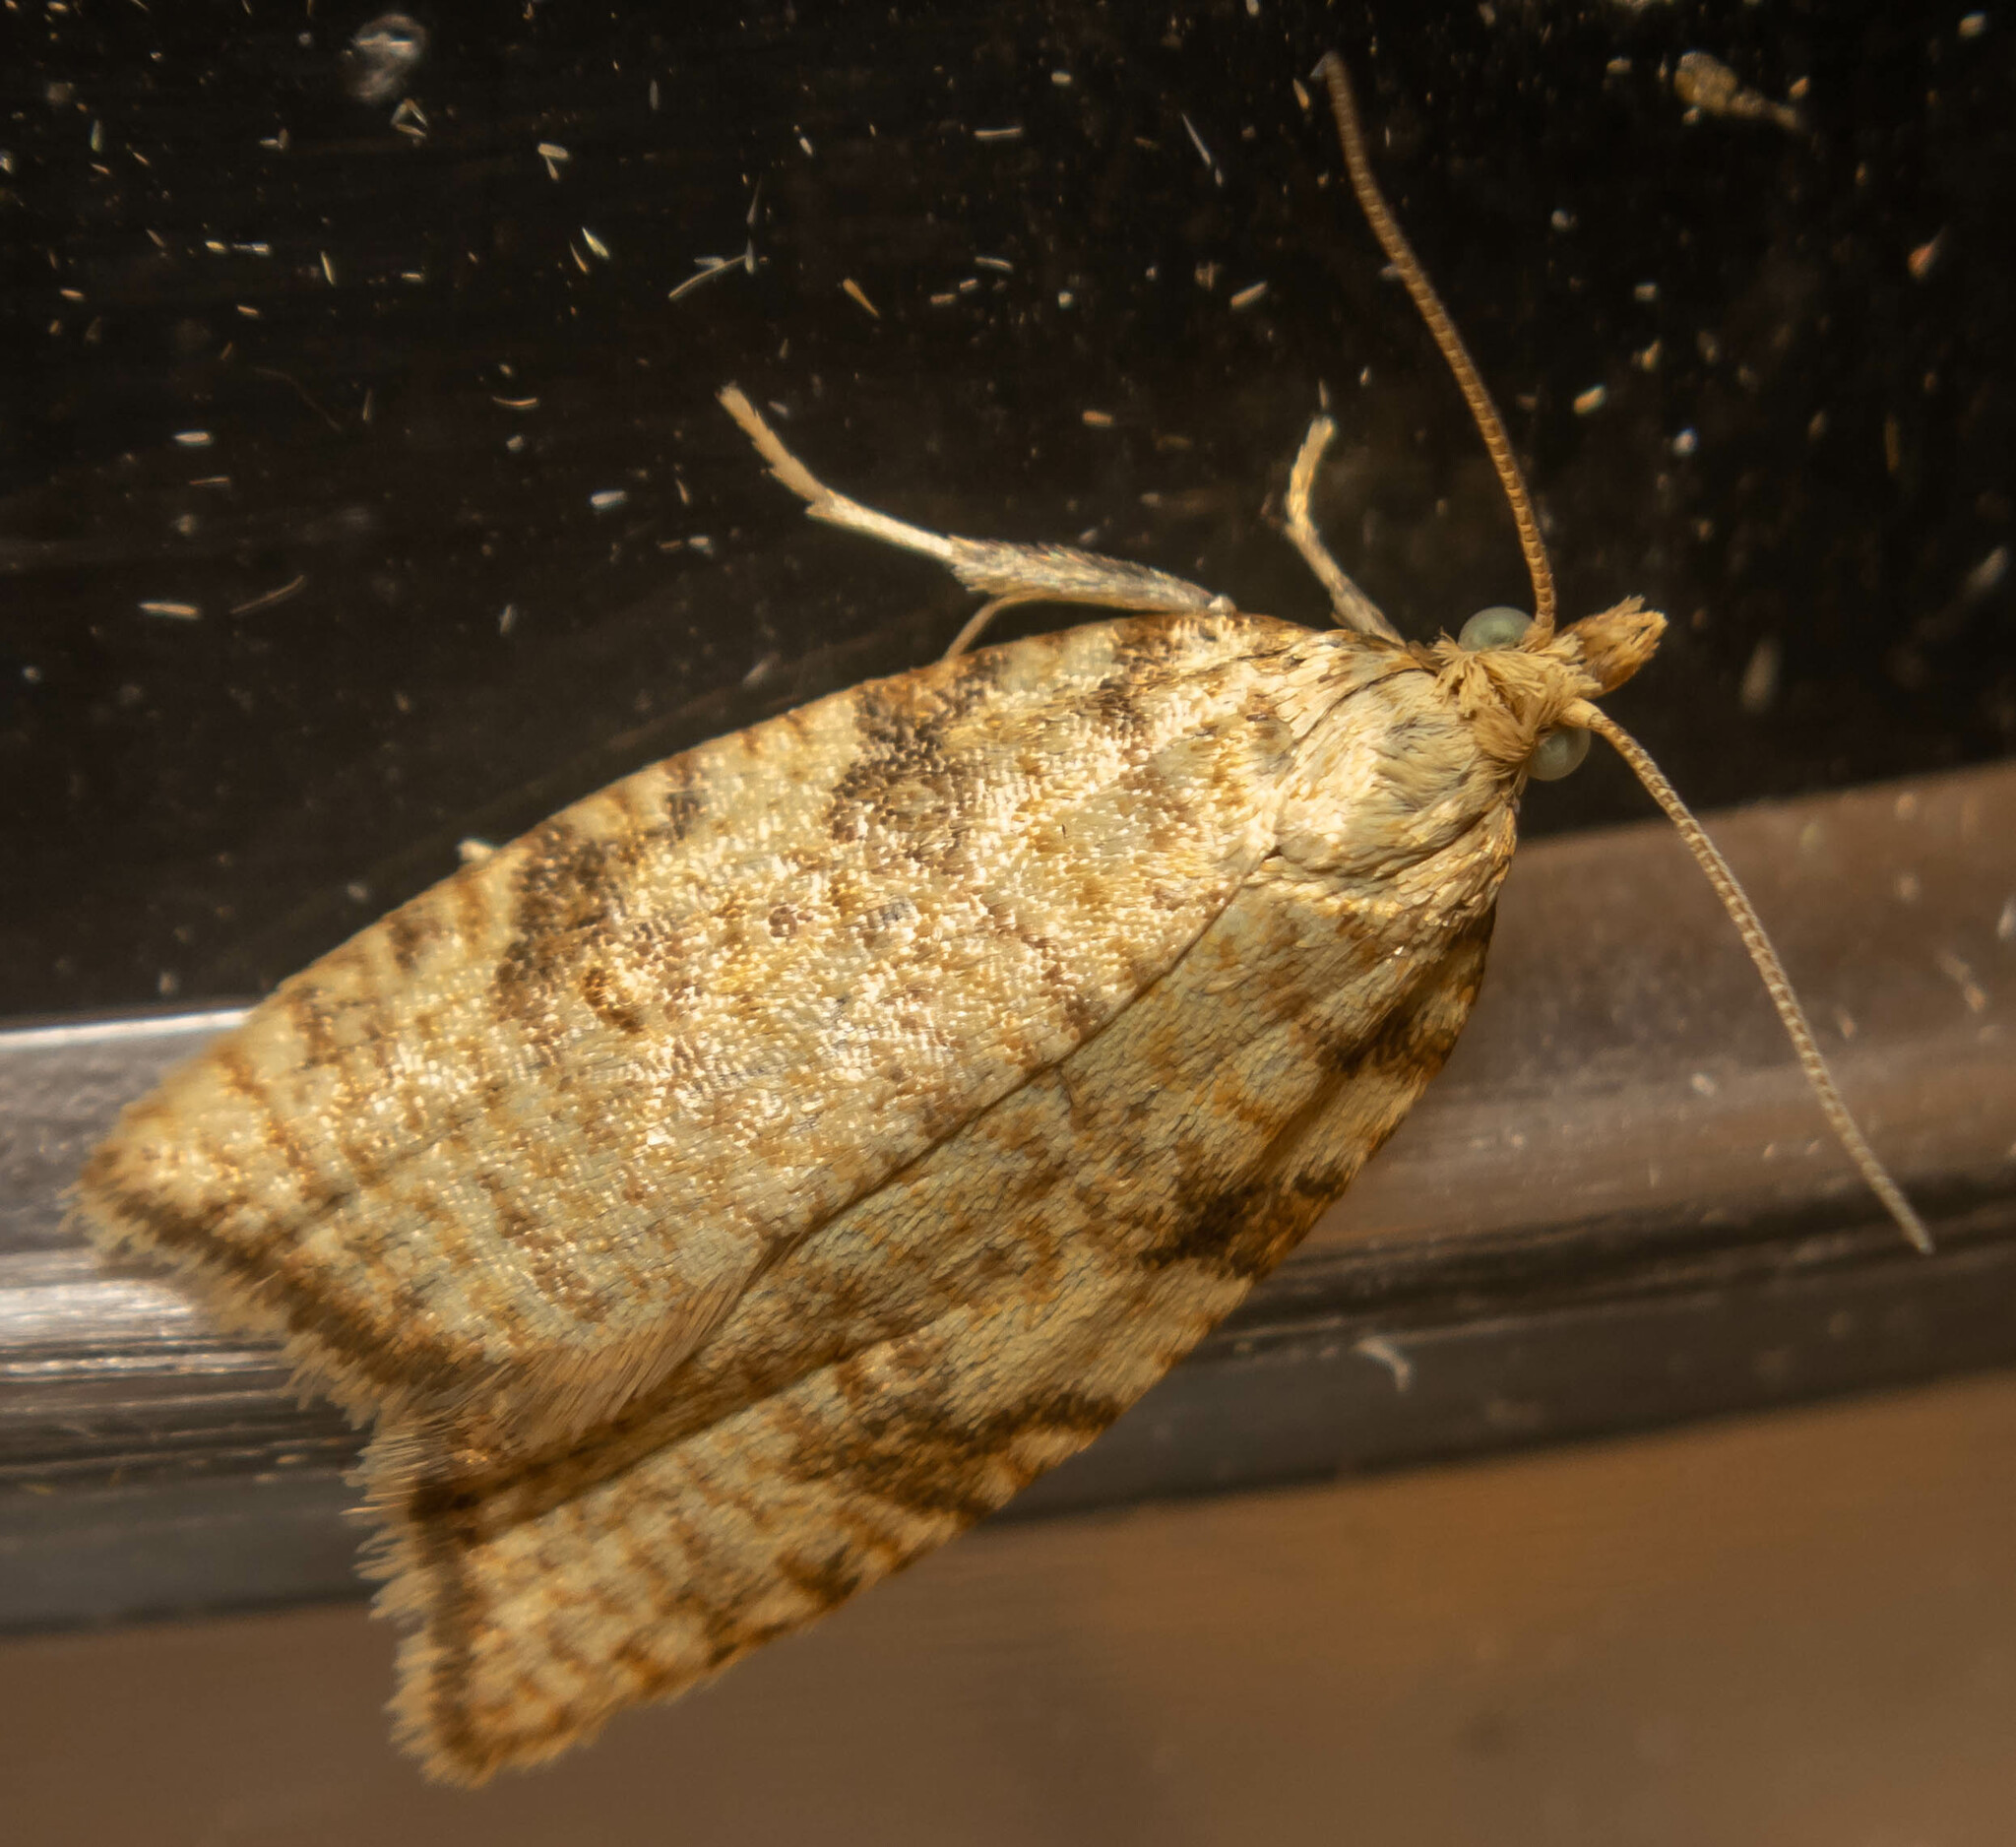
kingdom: Animalia
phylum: Arthropoda
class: Insecta
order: Lepidoptera
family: Tortricidae
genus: Aleimma
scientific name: Aleimma loeflingiana
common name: Yellow oak button
